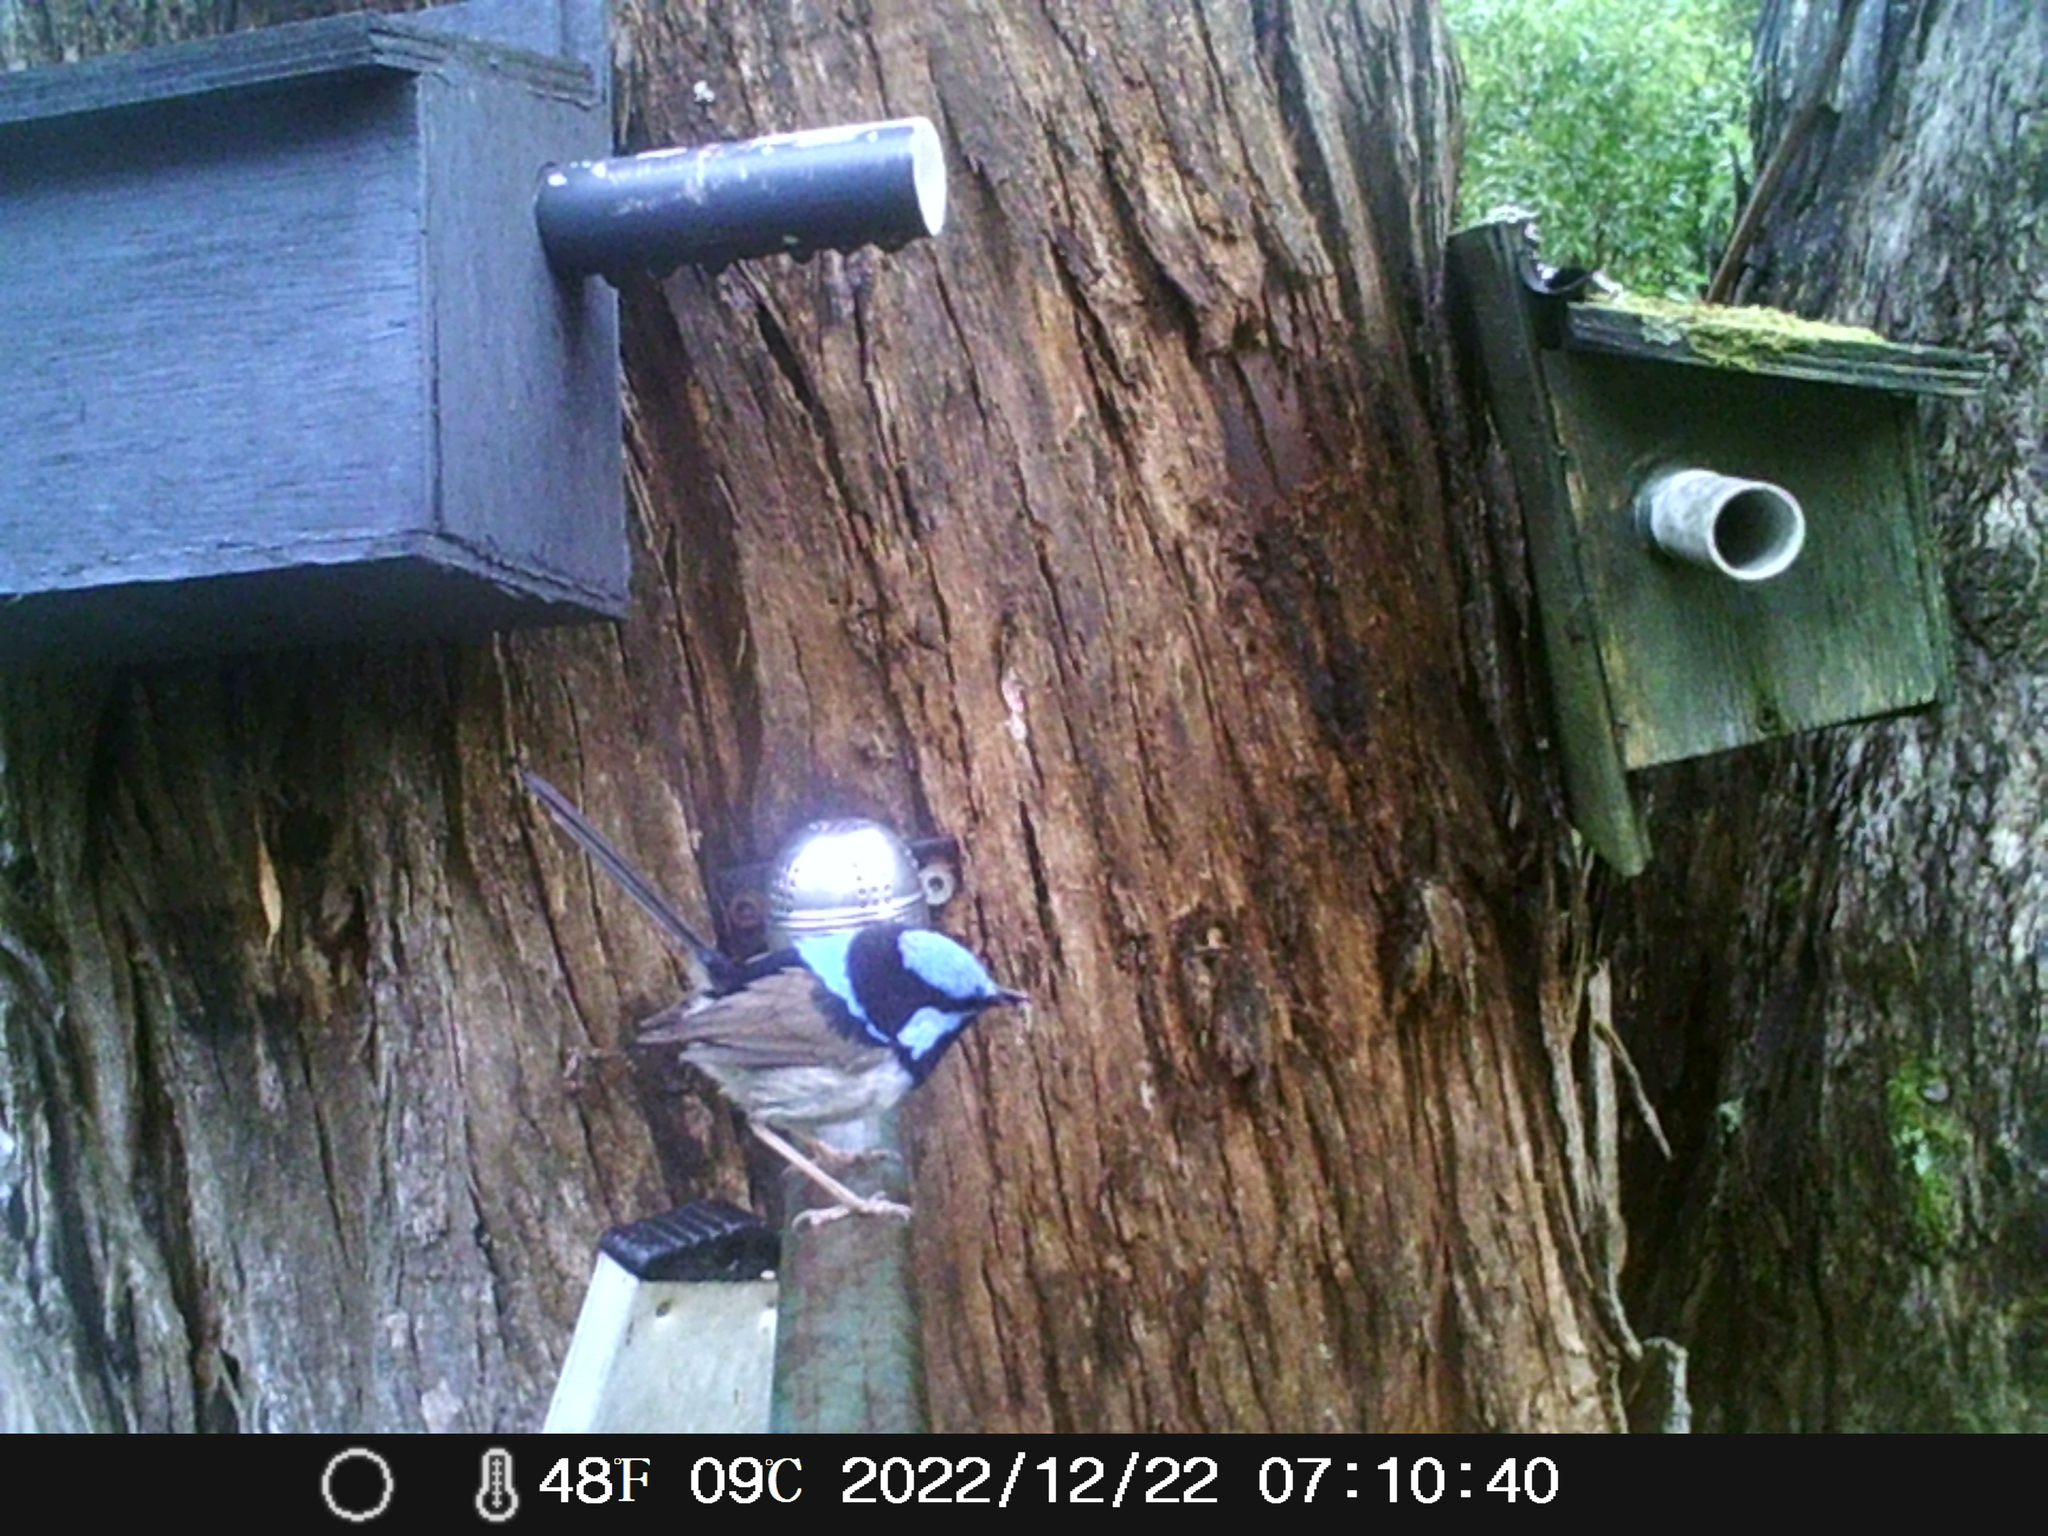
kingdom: Animalia
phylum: Chordata
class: Aves
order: Passeriformes
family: Maluridae
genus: Malurus
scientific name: Malurus cyaneus
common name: Superb fairywren
